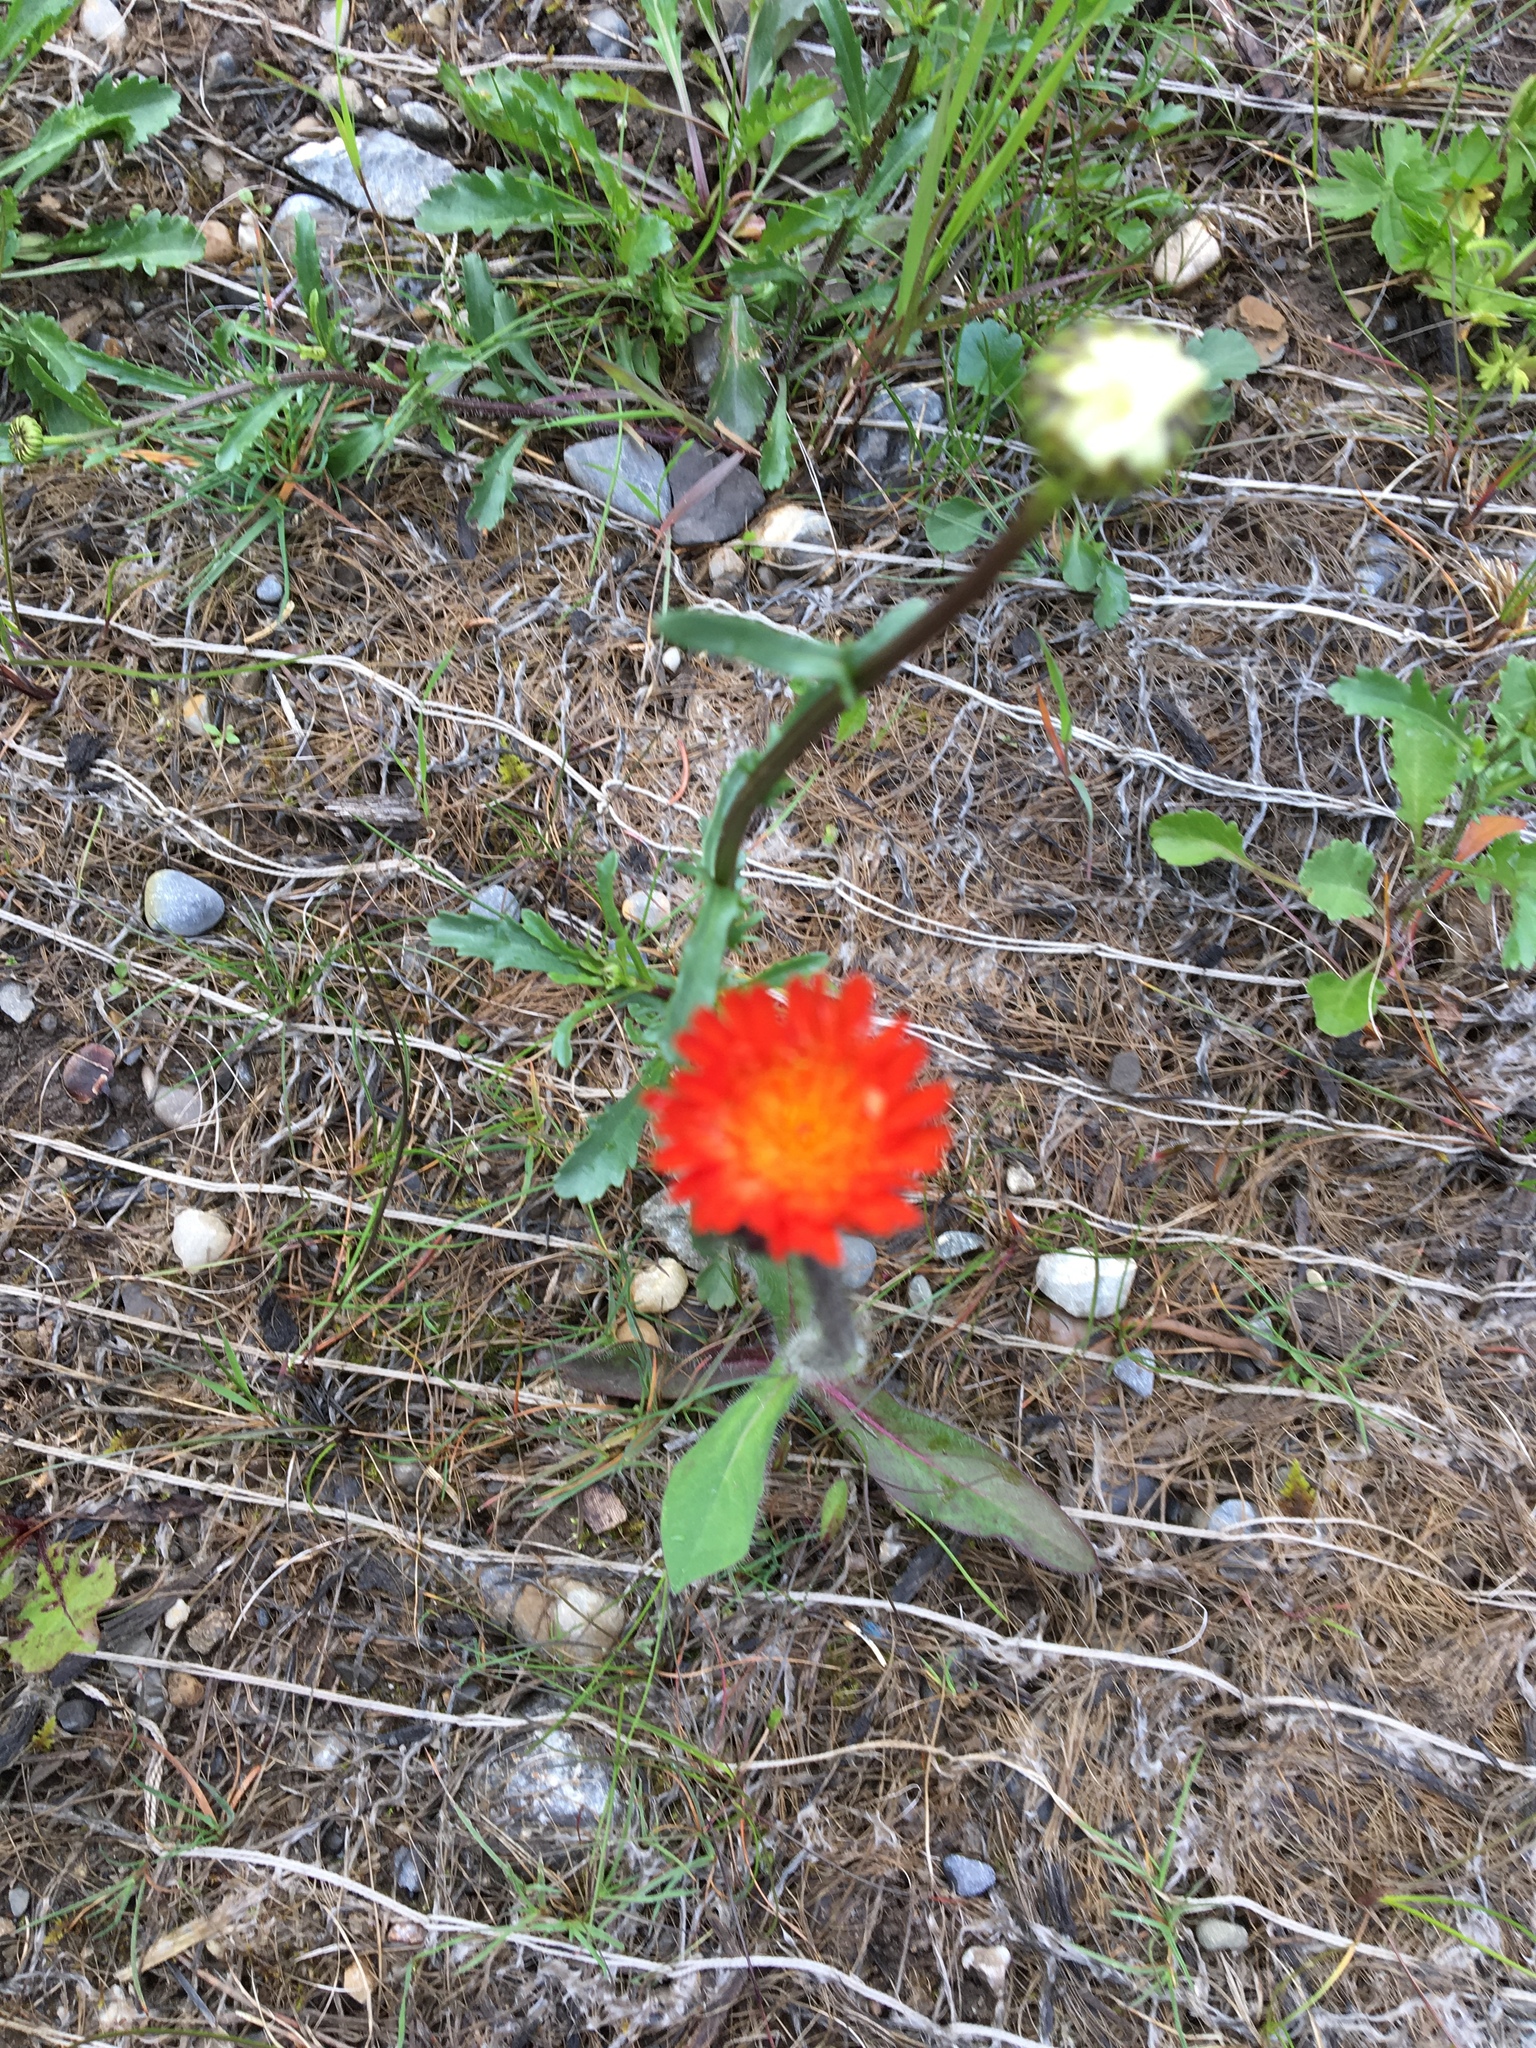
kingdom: Plantae
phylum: Tracheophyta
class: Magnoliopsida
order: Asterales
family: Asteraceae
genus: Pilosella
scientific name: Pilosella aurantiaca
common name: Fox-and-cubs
